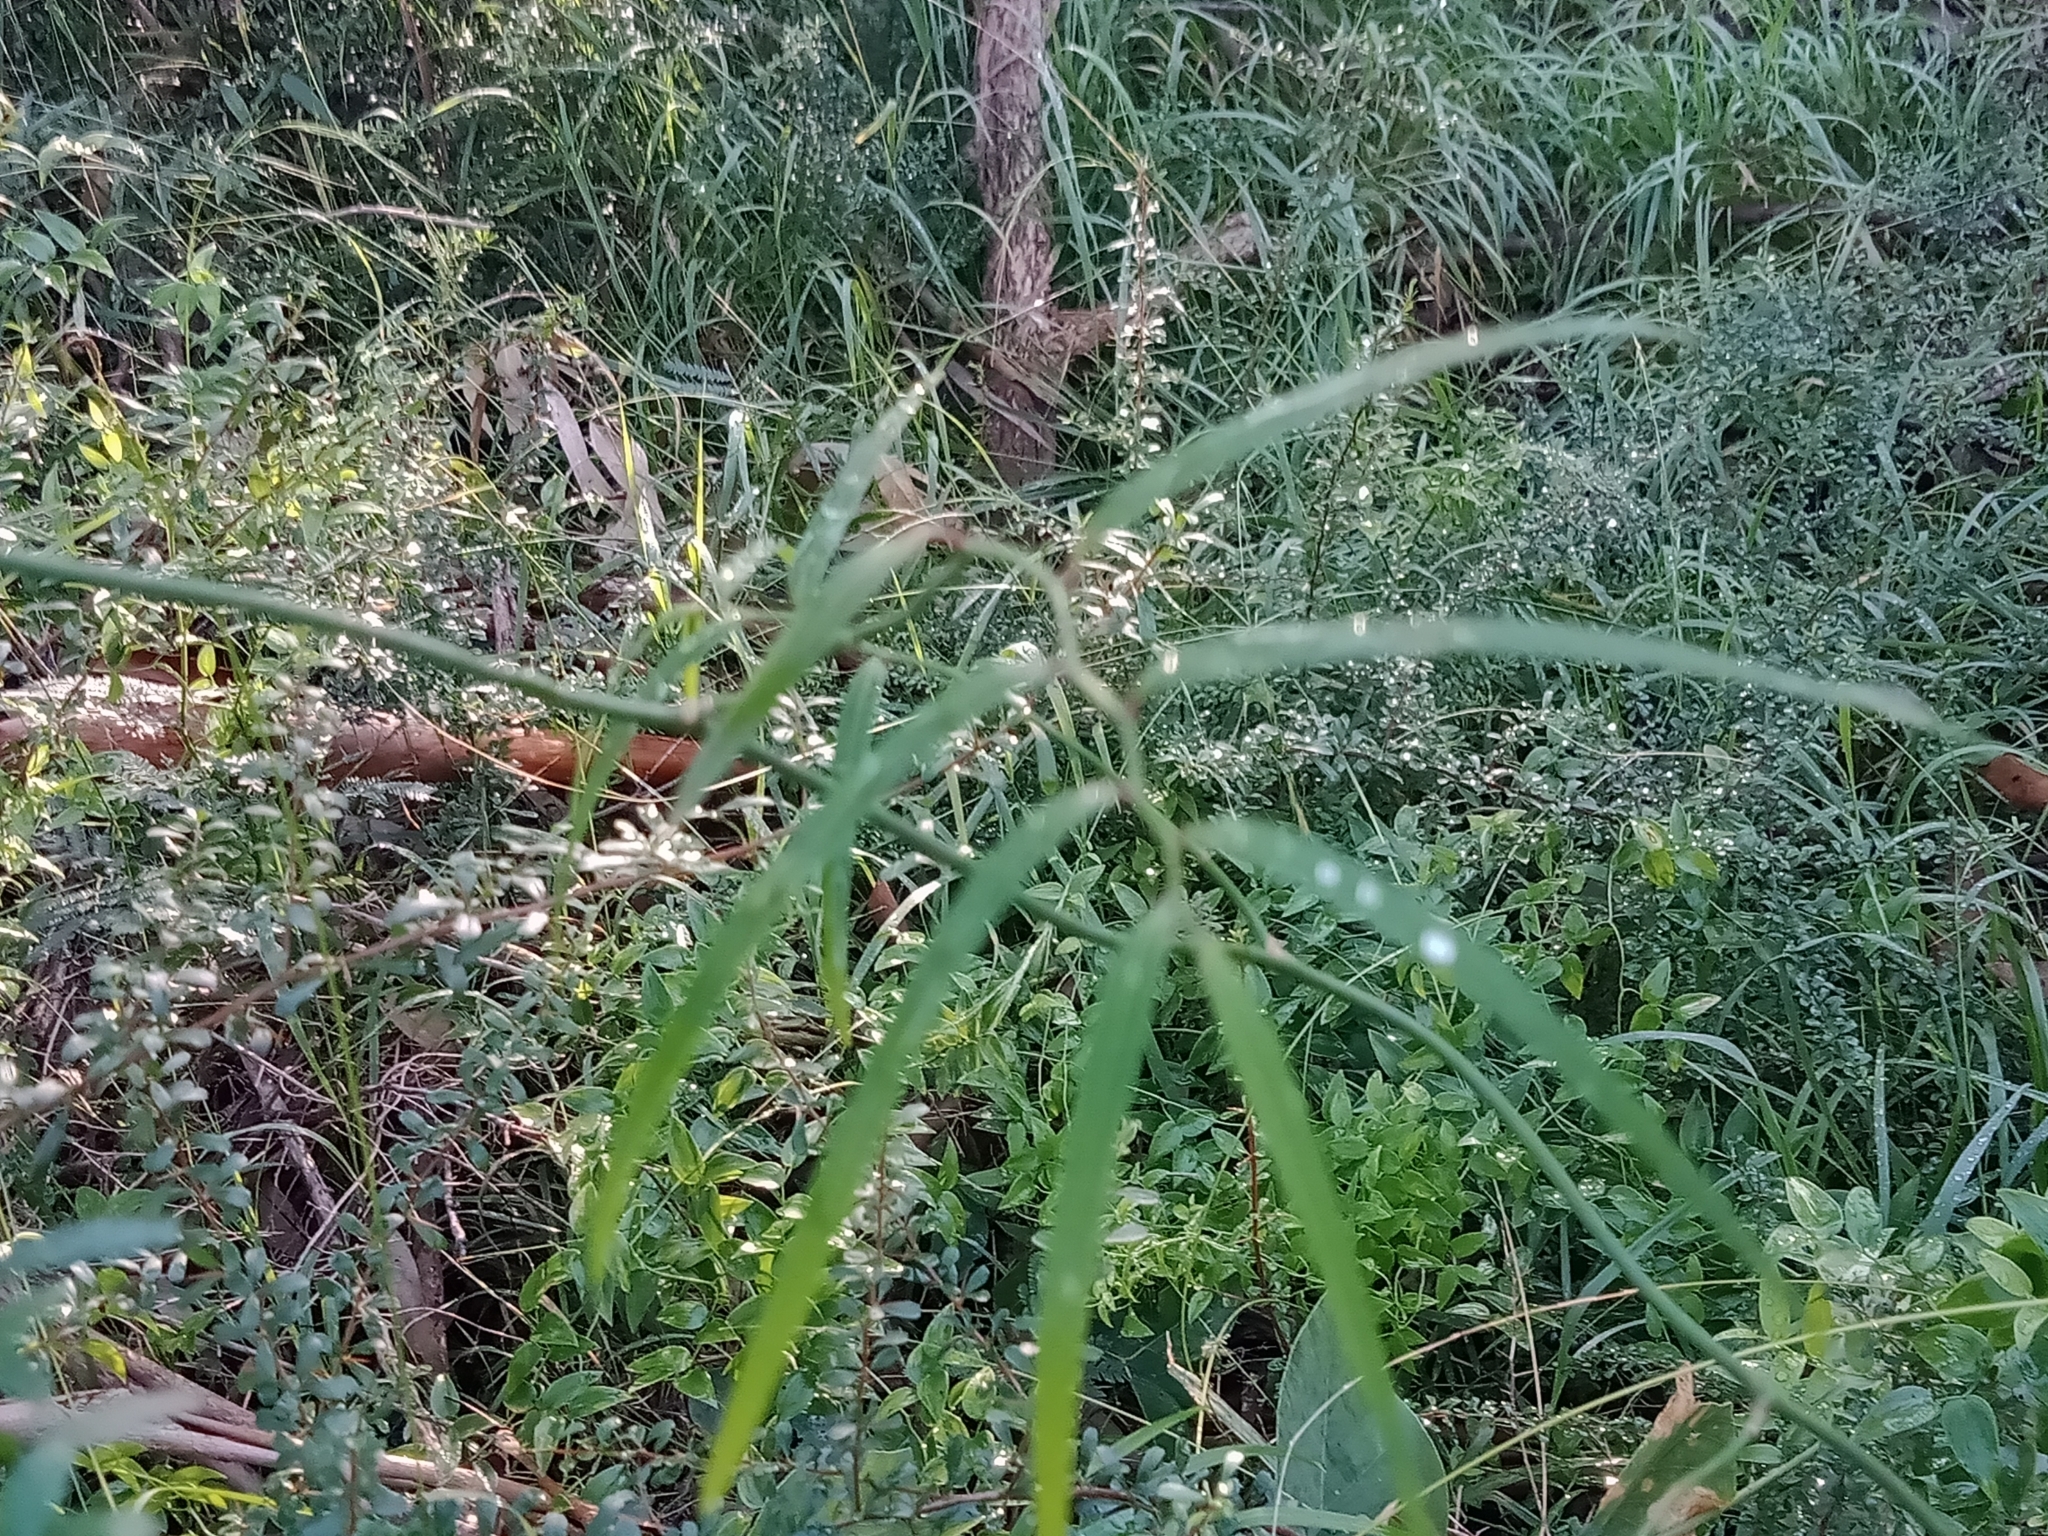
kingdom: Plantae
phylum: Tracheophyta
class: Liliopsida
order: Asparagales
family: Asphodelaceae
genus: Geitonoplesium
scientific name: Geitonoplesium cymosum
